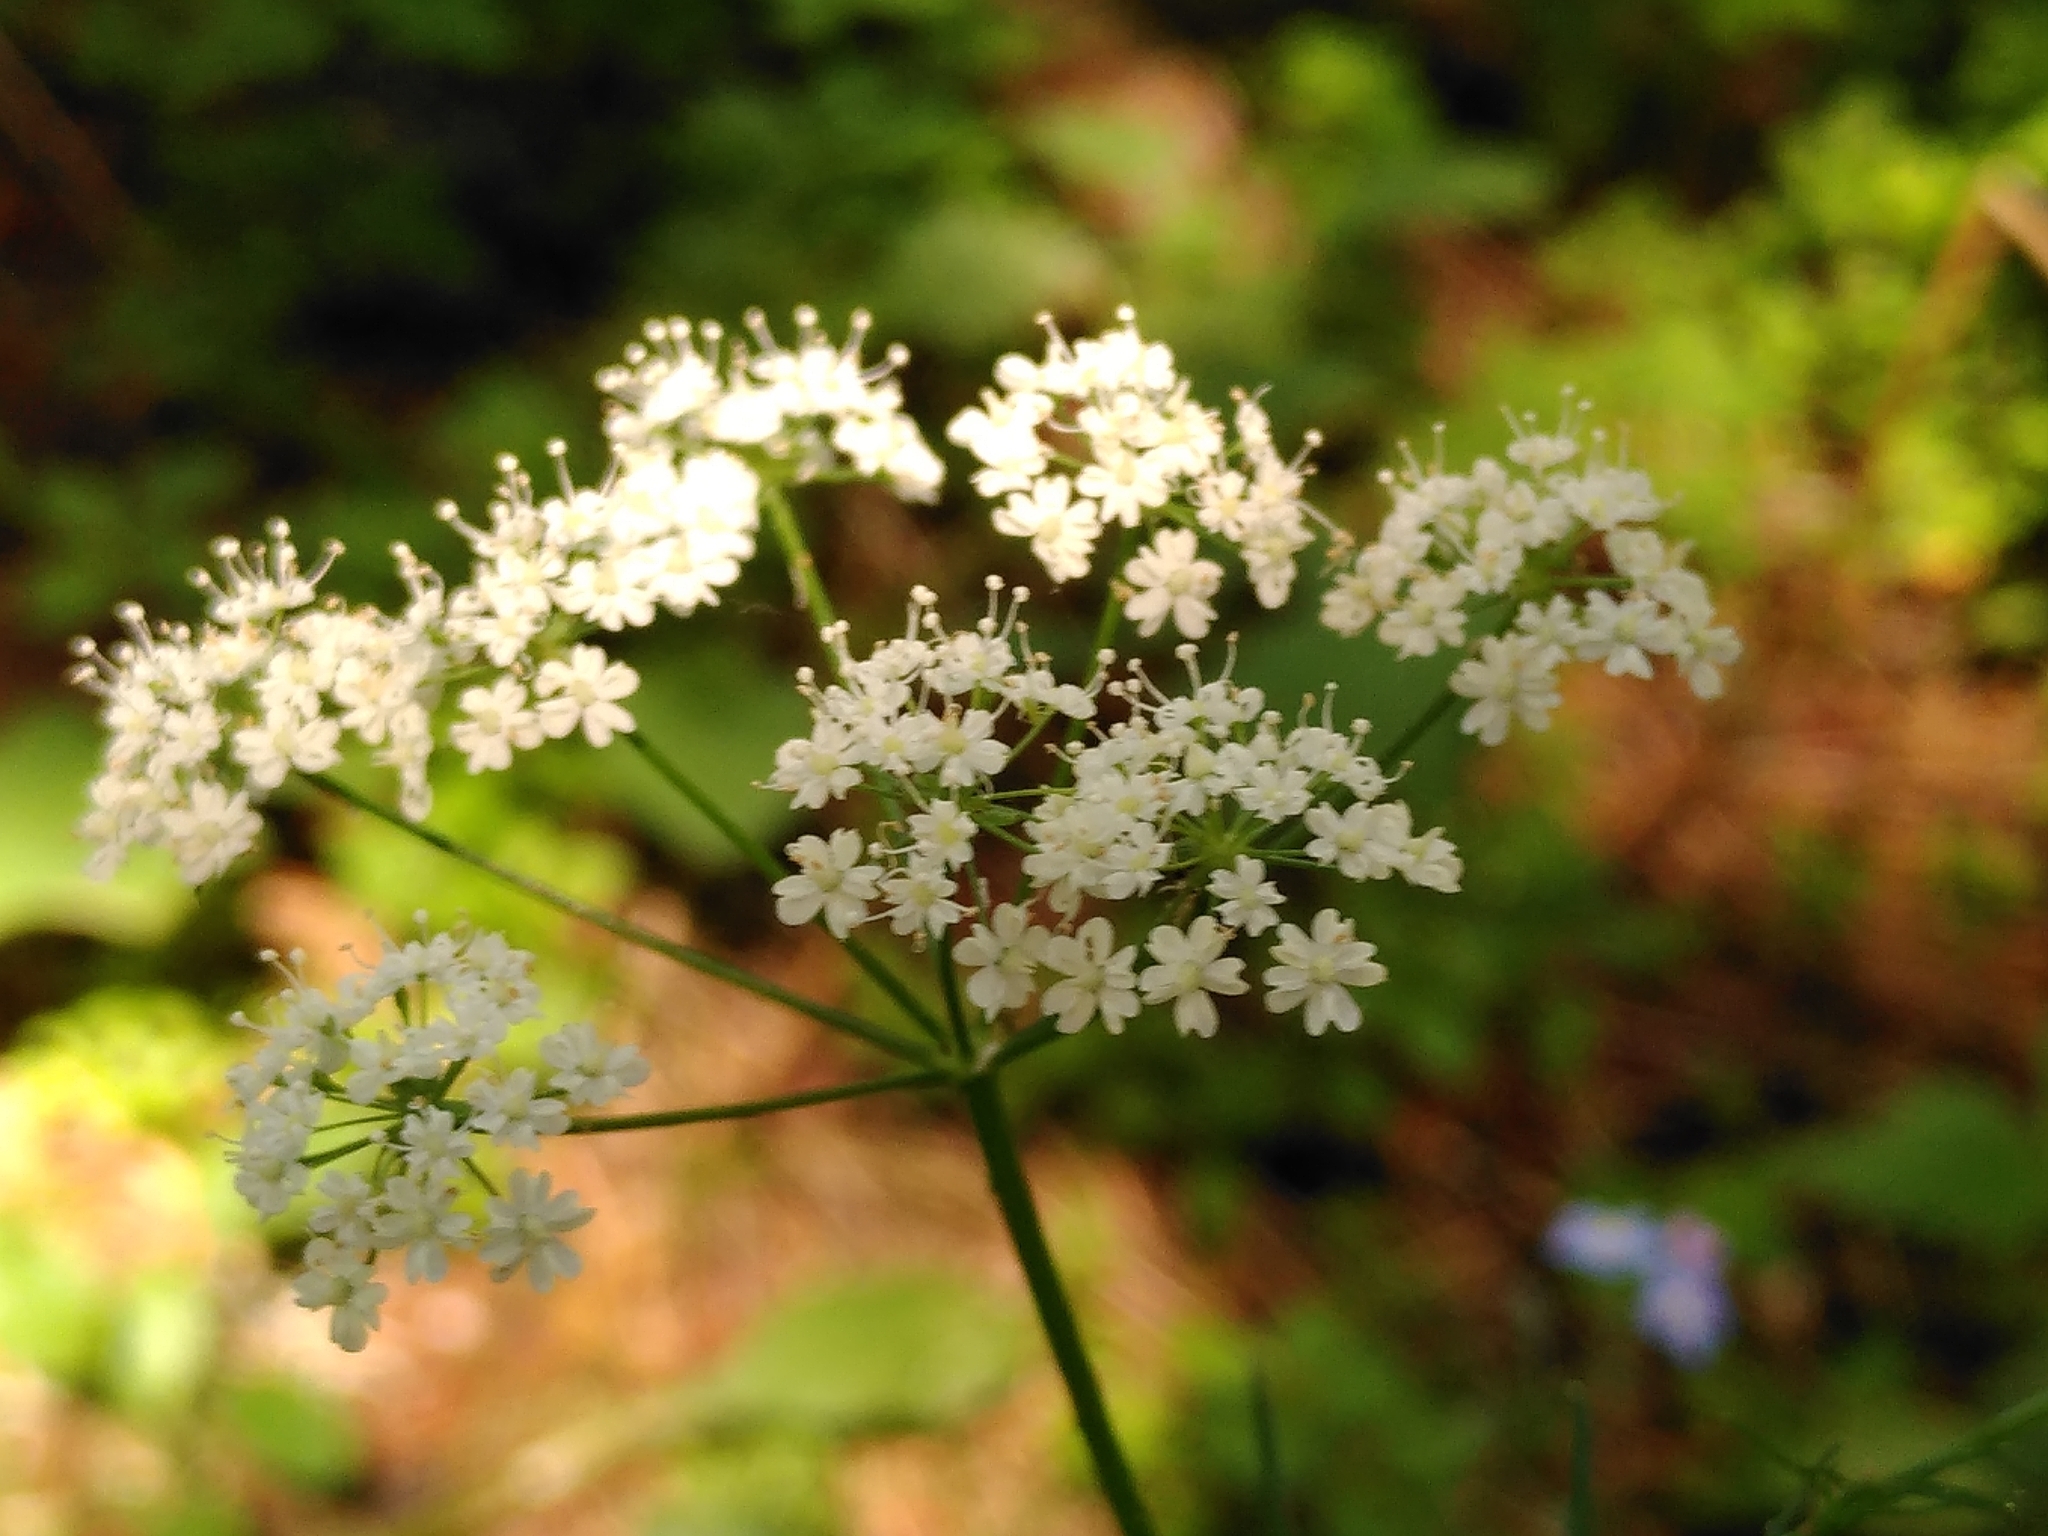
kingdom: Plantae
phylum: Tracheophyta
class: Magnoliopsida
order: Apiales
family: Apiaceae
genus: Conopodium
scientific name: Conopodium majus
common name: Pignut
